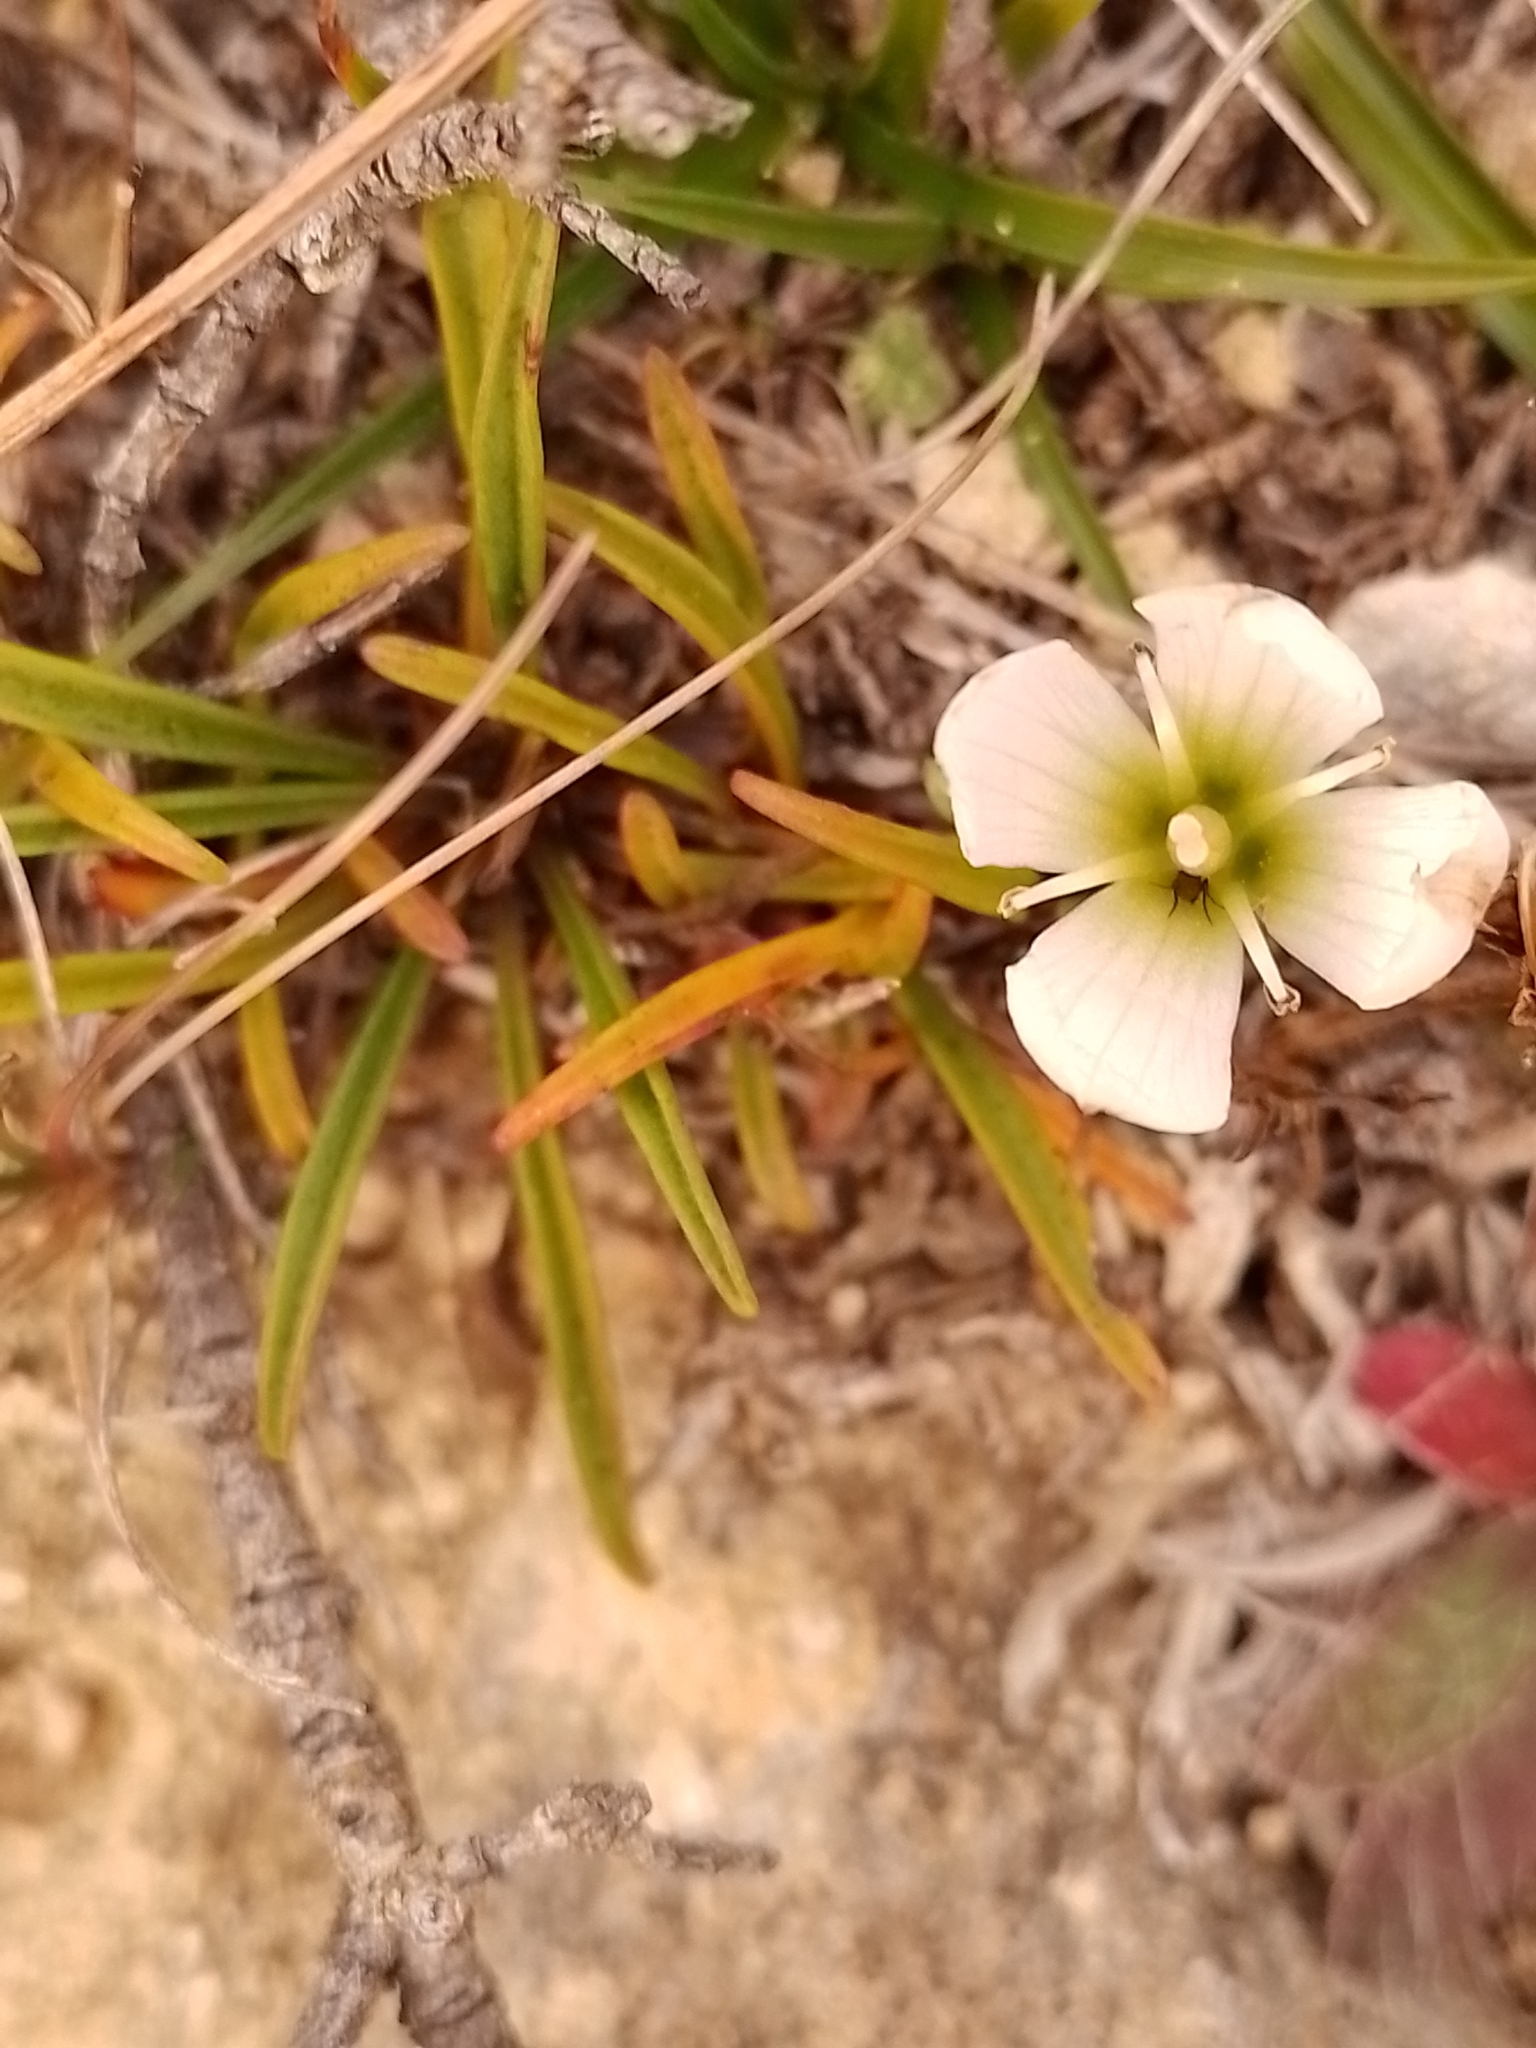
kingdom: Plantae
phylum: Tracheophyta
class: Magnoliopsida
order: Gentianales
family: Gentianaceae
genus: Gentianella
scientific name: Gentianella calcis
